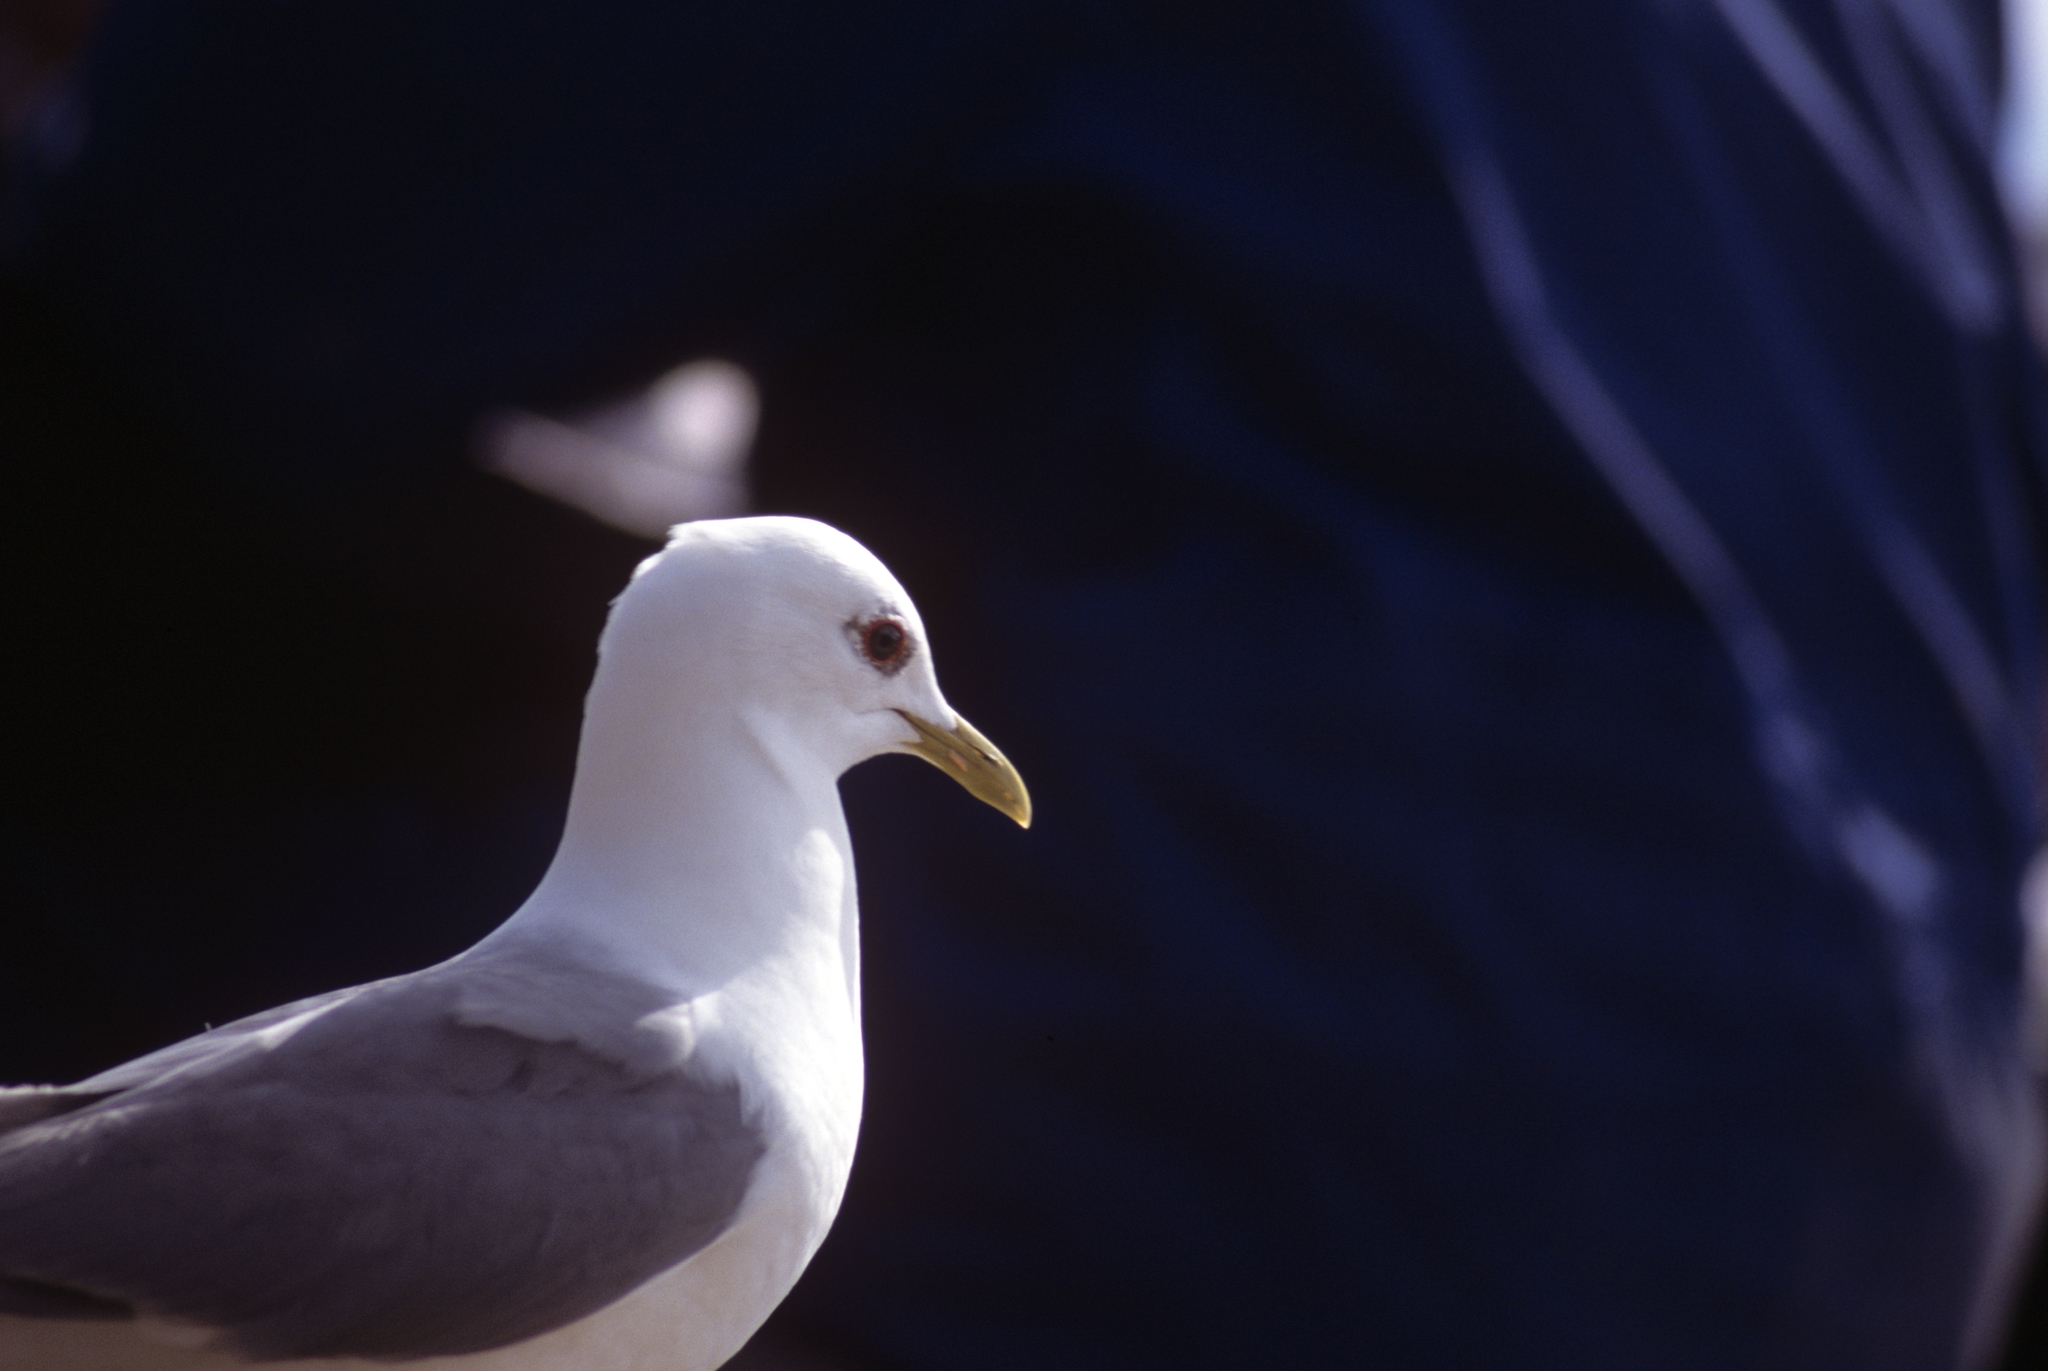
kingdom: Animalia
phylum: Chordata
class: Aves
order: Charadriiformes
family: Laridae
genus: Larus
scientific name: Larus brachyrhynchus
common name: Short-billed gull
